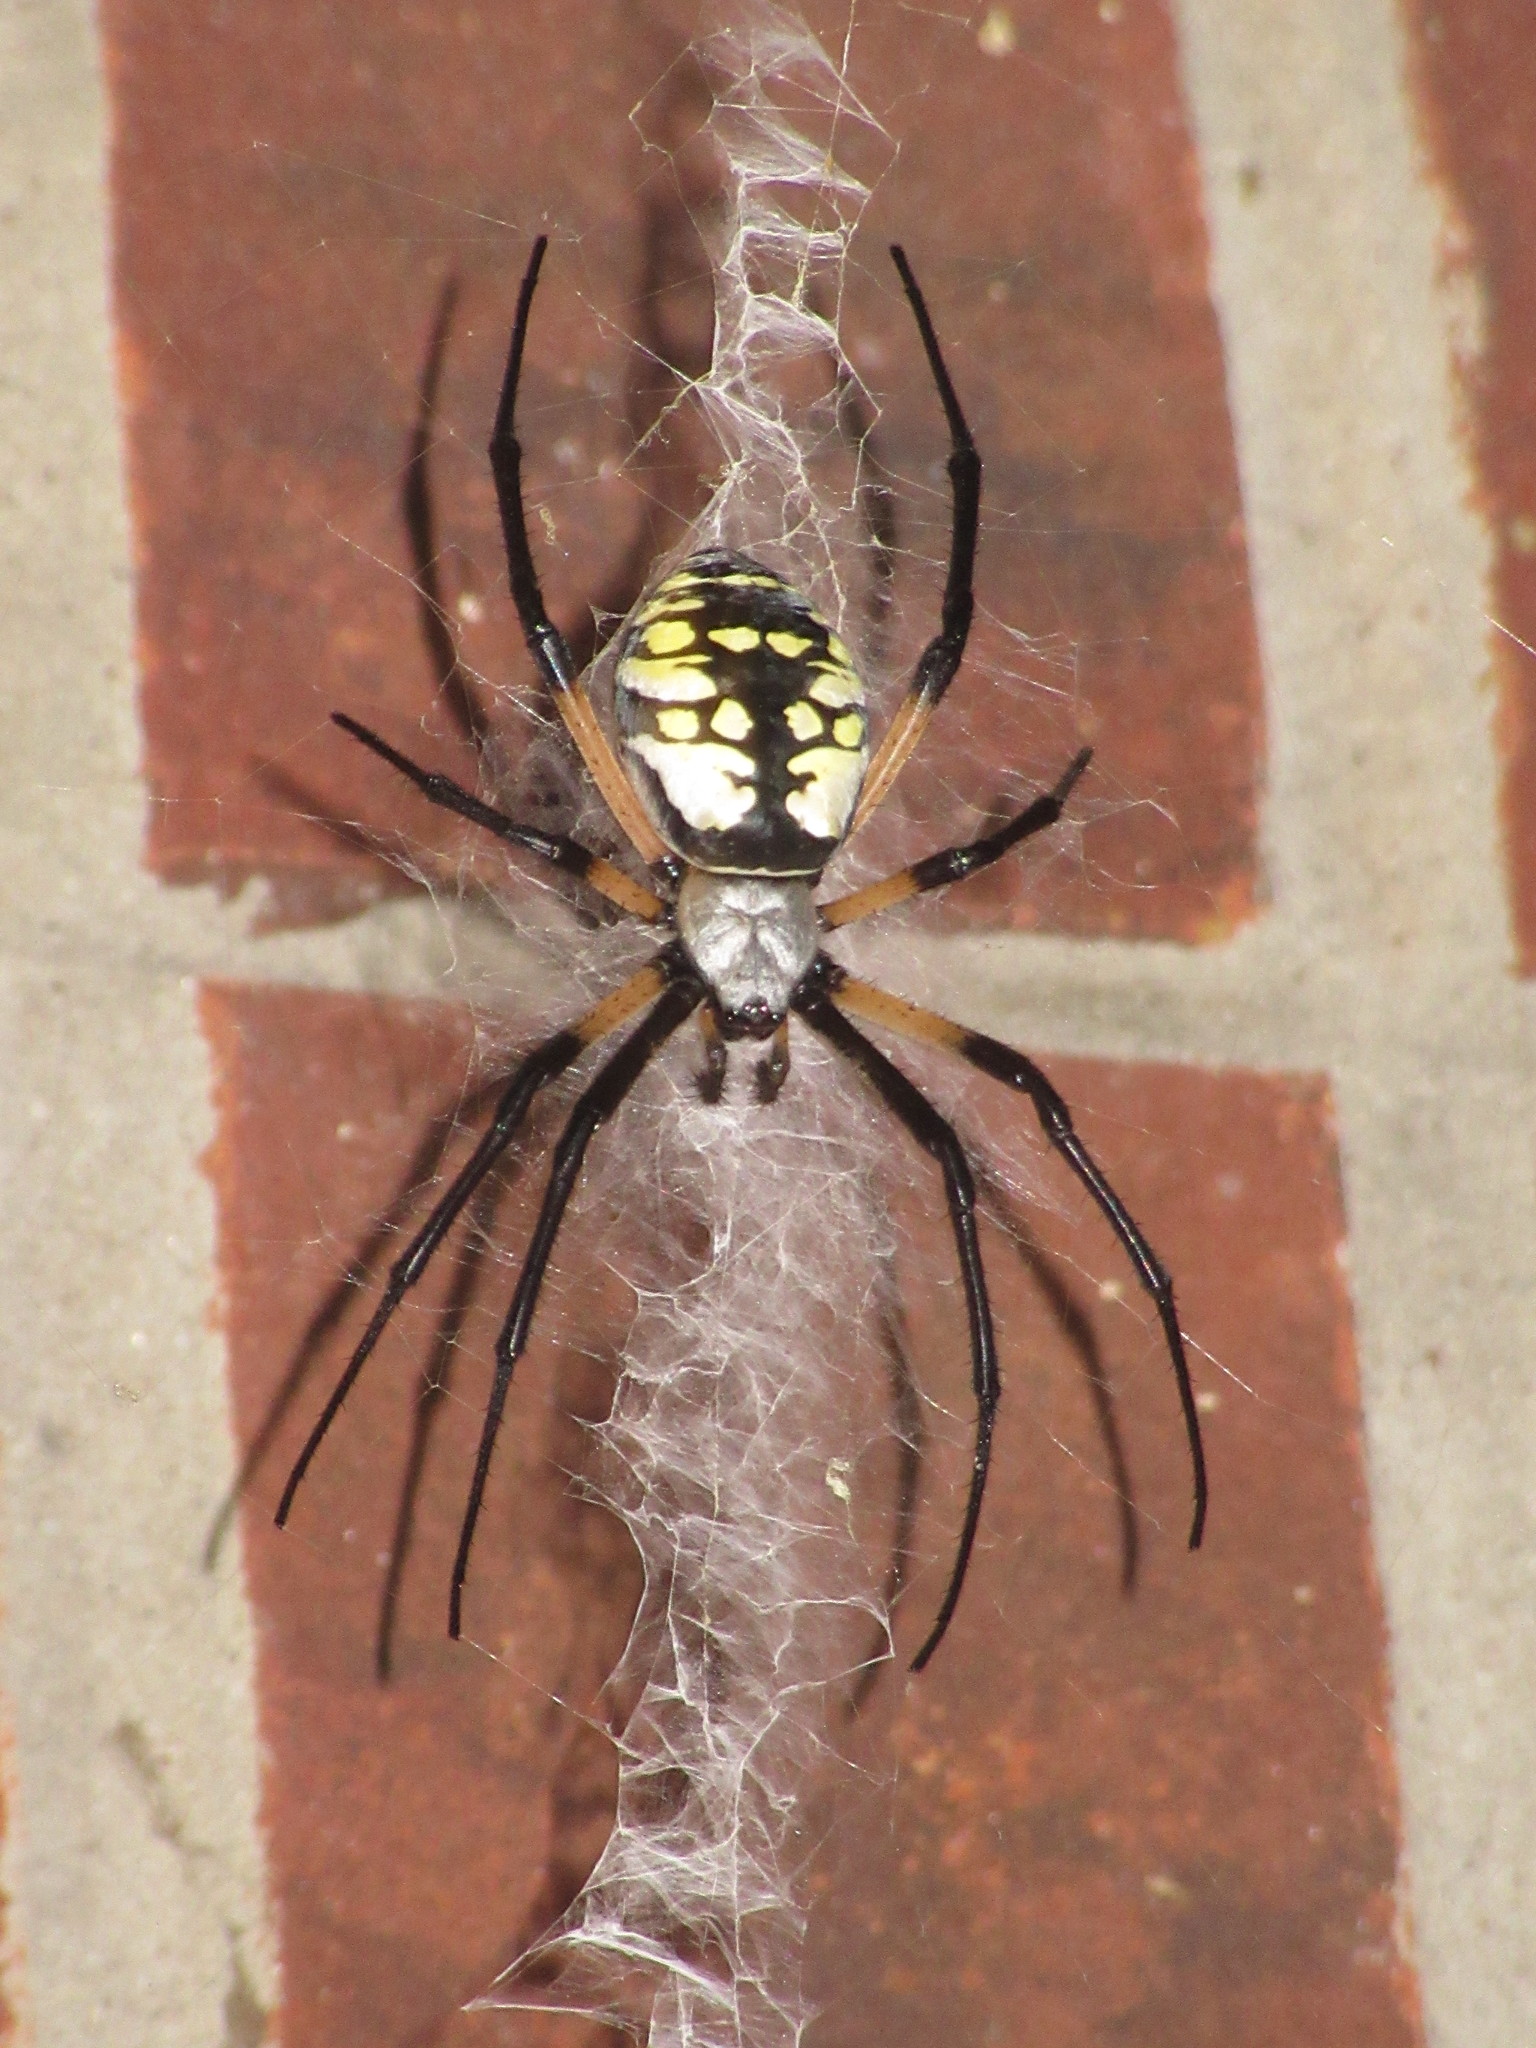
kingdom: Animalia
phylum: Arthropoda
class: Arachnida
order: Araneae
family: Araneidae
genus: Argiope
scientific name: Argiope aurantia
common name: Orb weavers
